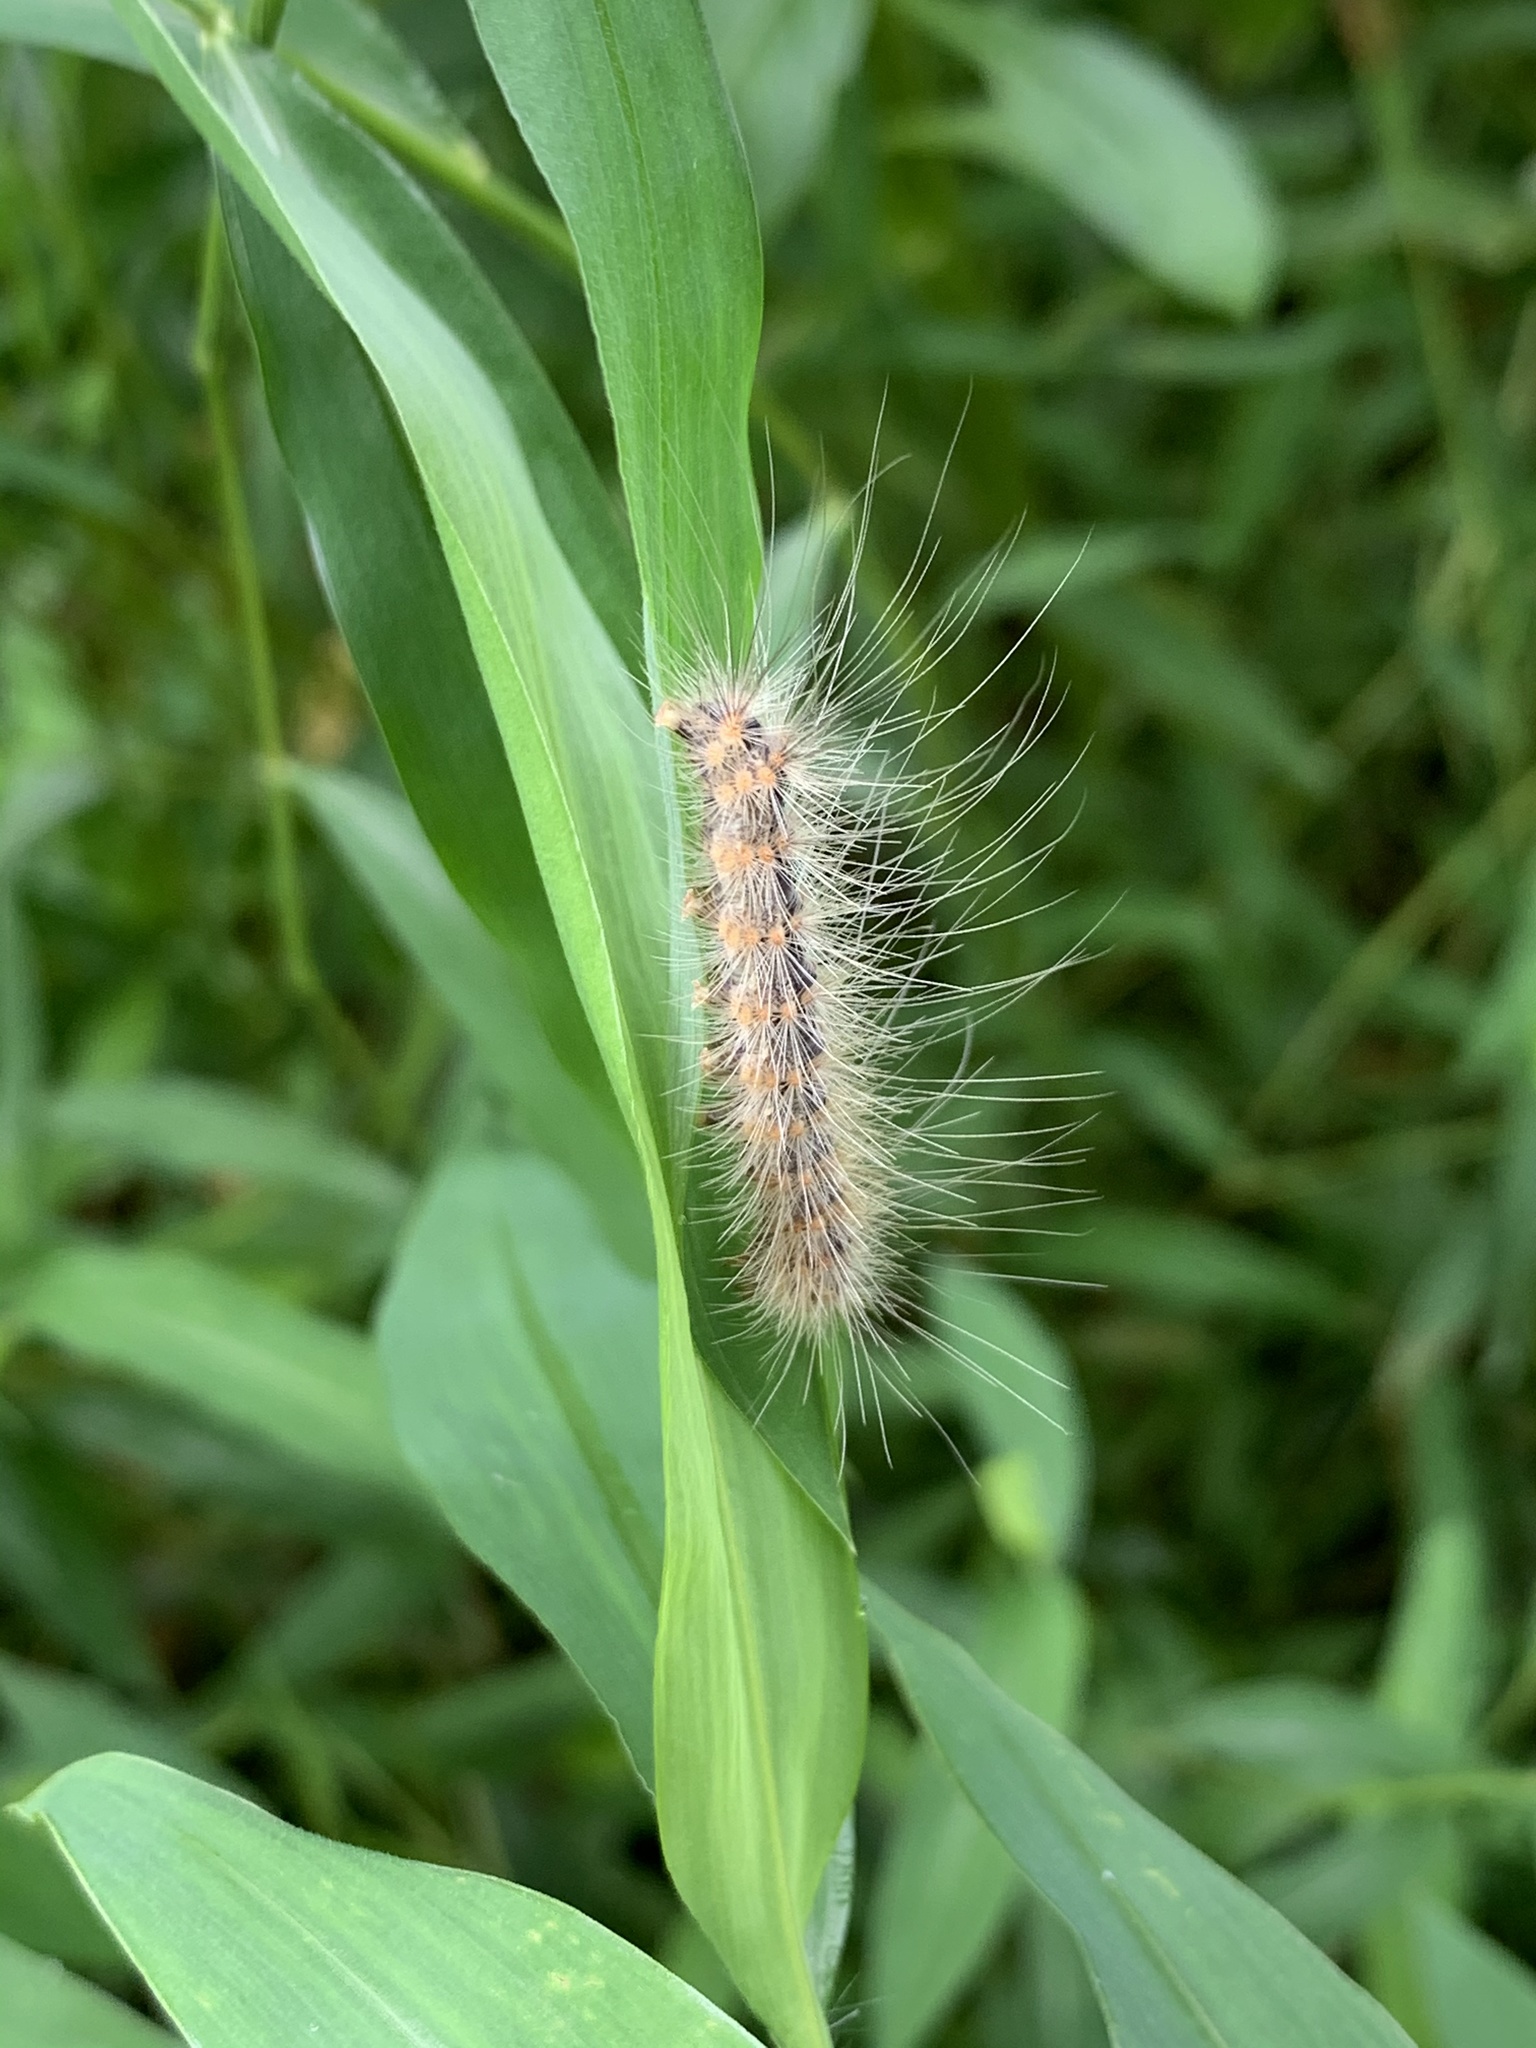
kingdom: Animalia
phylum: Arthropoda
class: Insecta
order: Lepidoptera
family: Erebidae
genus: Hyphantria
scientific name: Hyphantria cunea
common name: American white moth
